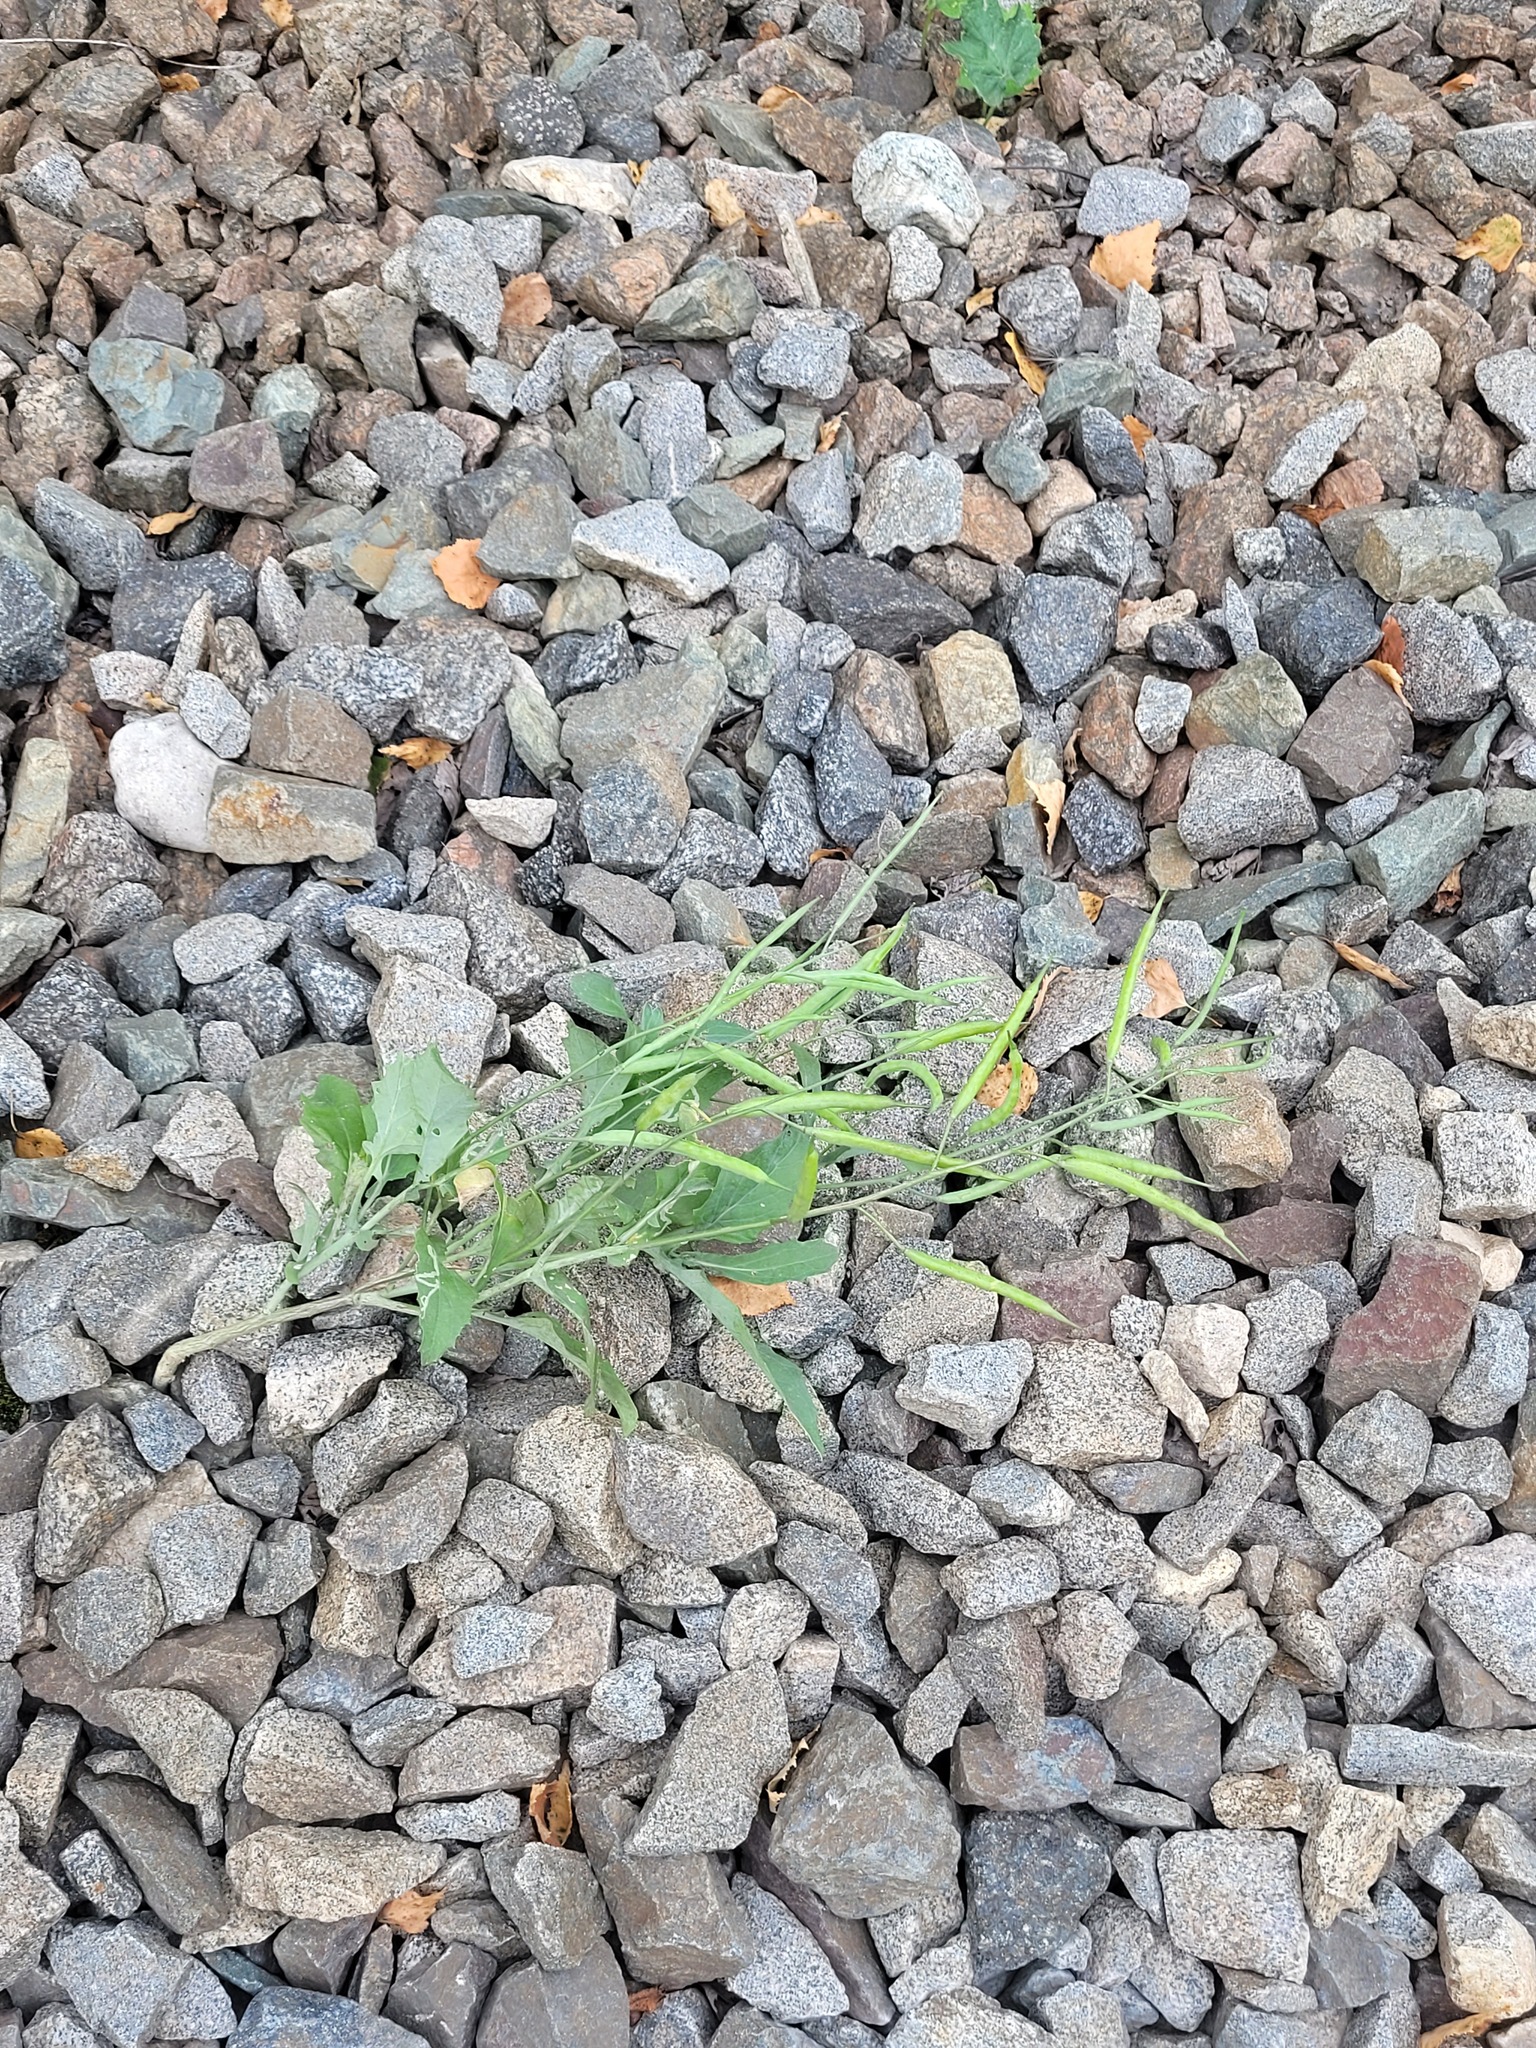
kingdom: Plantae
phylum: Tracheophyta
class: Magnoliopsida
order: Brassicales
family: Brassicaceae
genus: Brassica
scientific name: Brassica napus
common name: Rape
